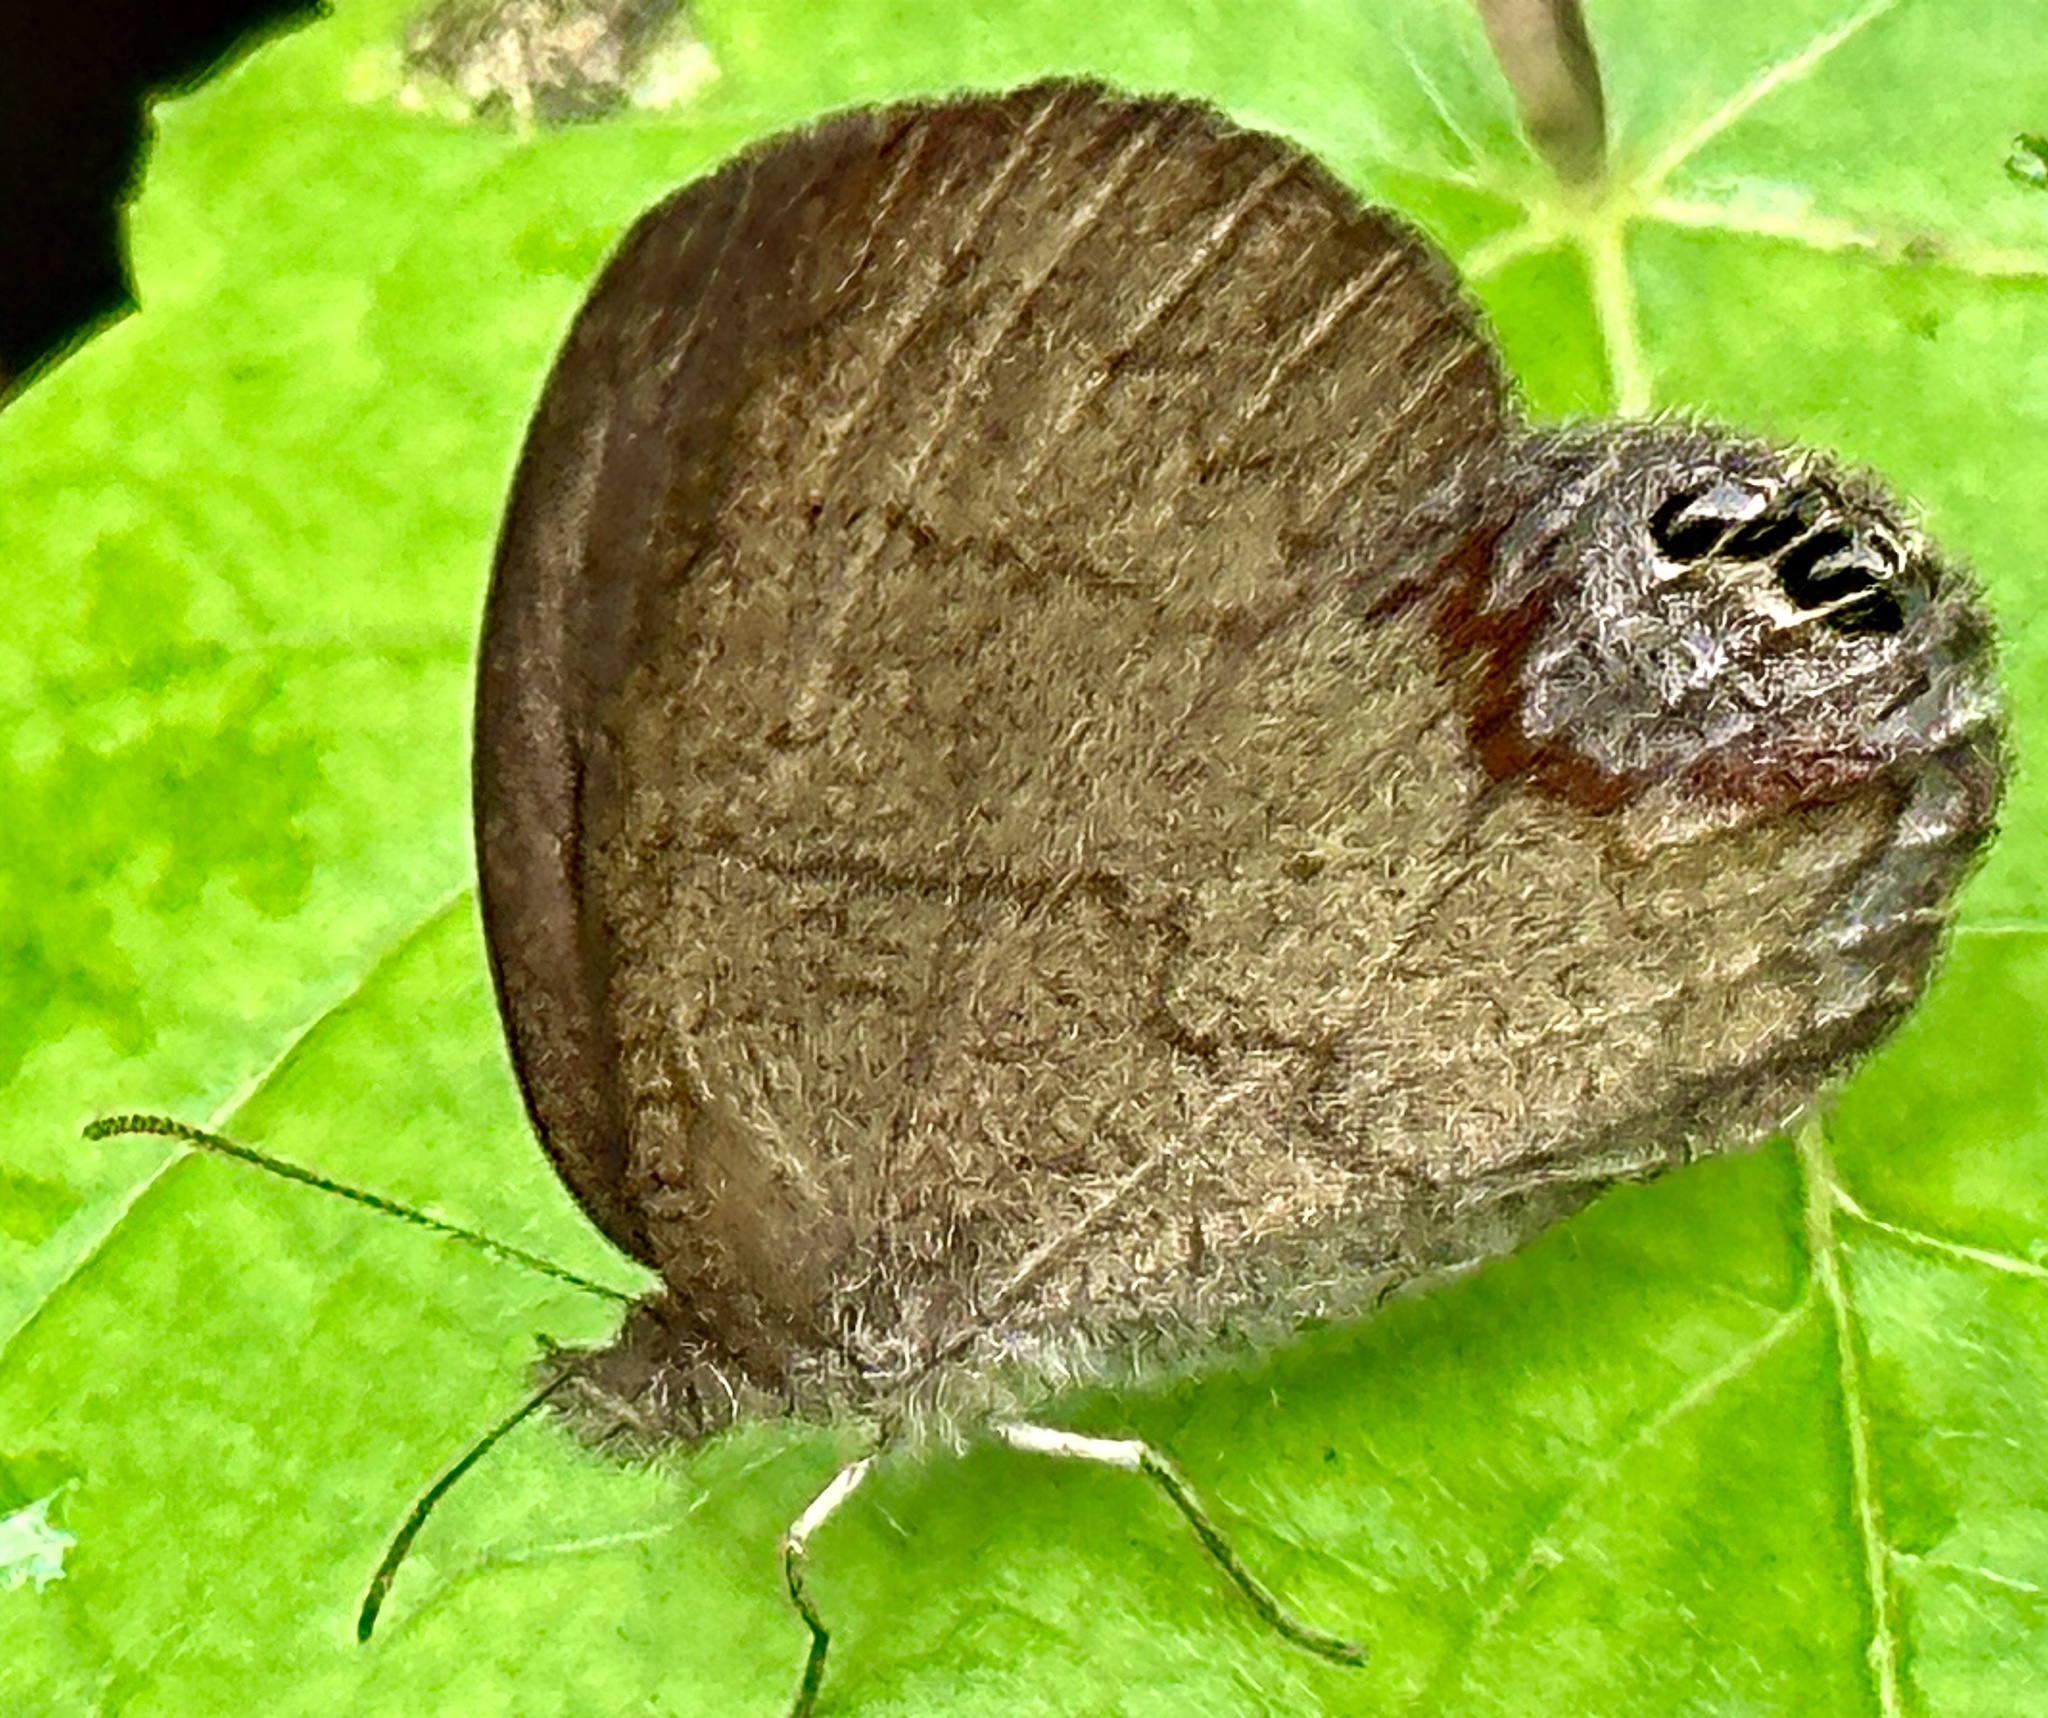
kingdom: Animalia
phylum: Arthropoda
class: Insecta
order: Lepidoptera
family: Nymphalidae
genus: Euptychia
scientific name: Euptychia cornelius
